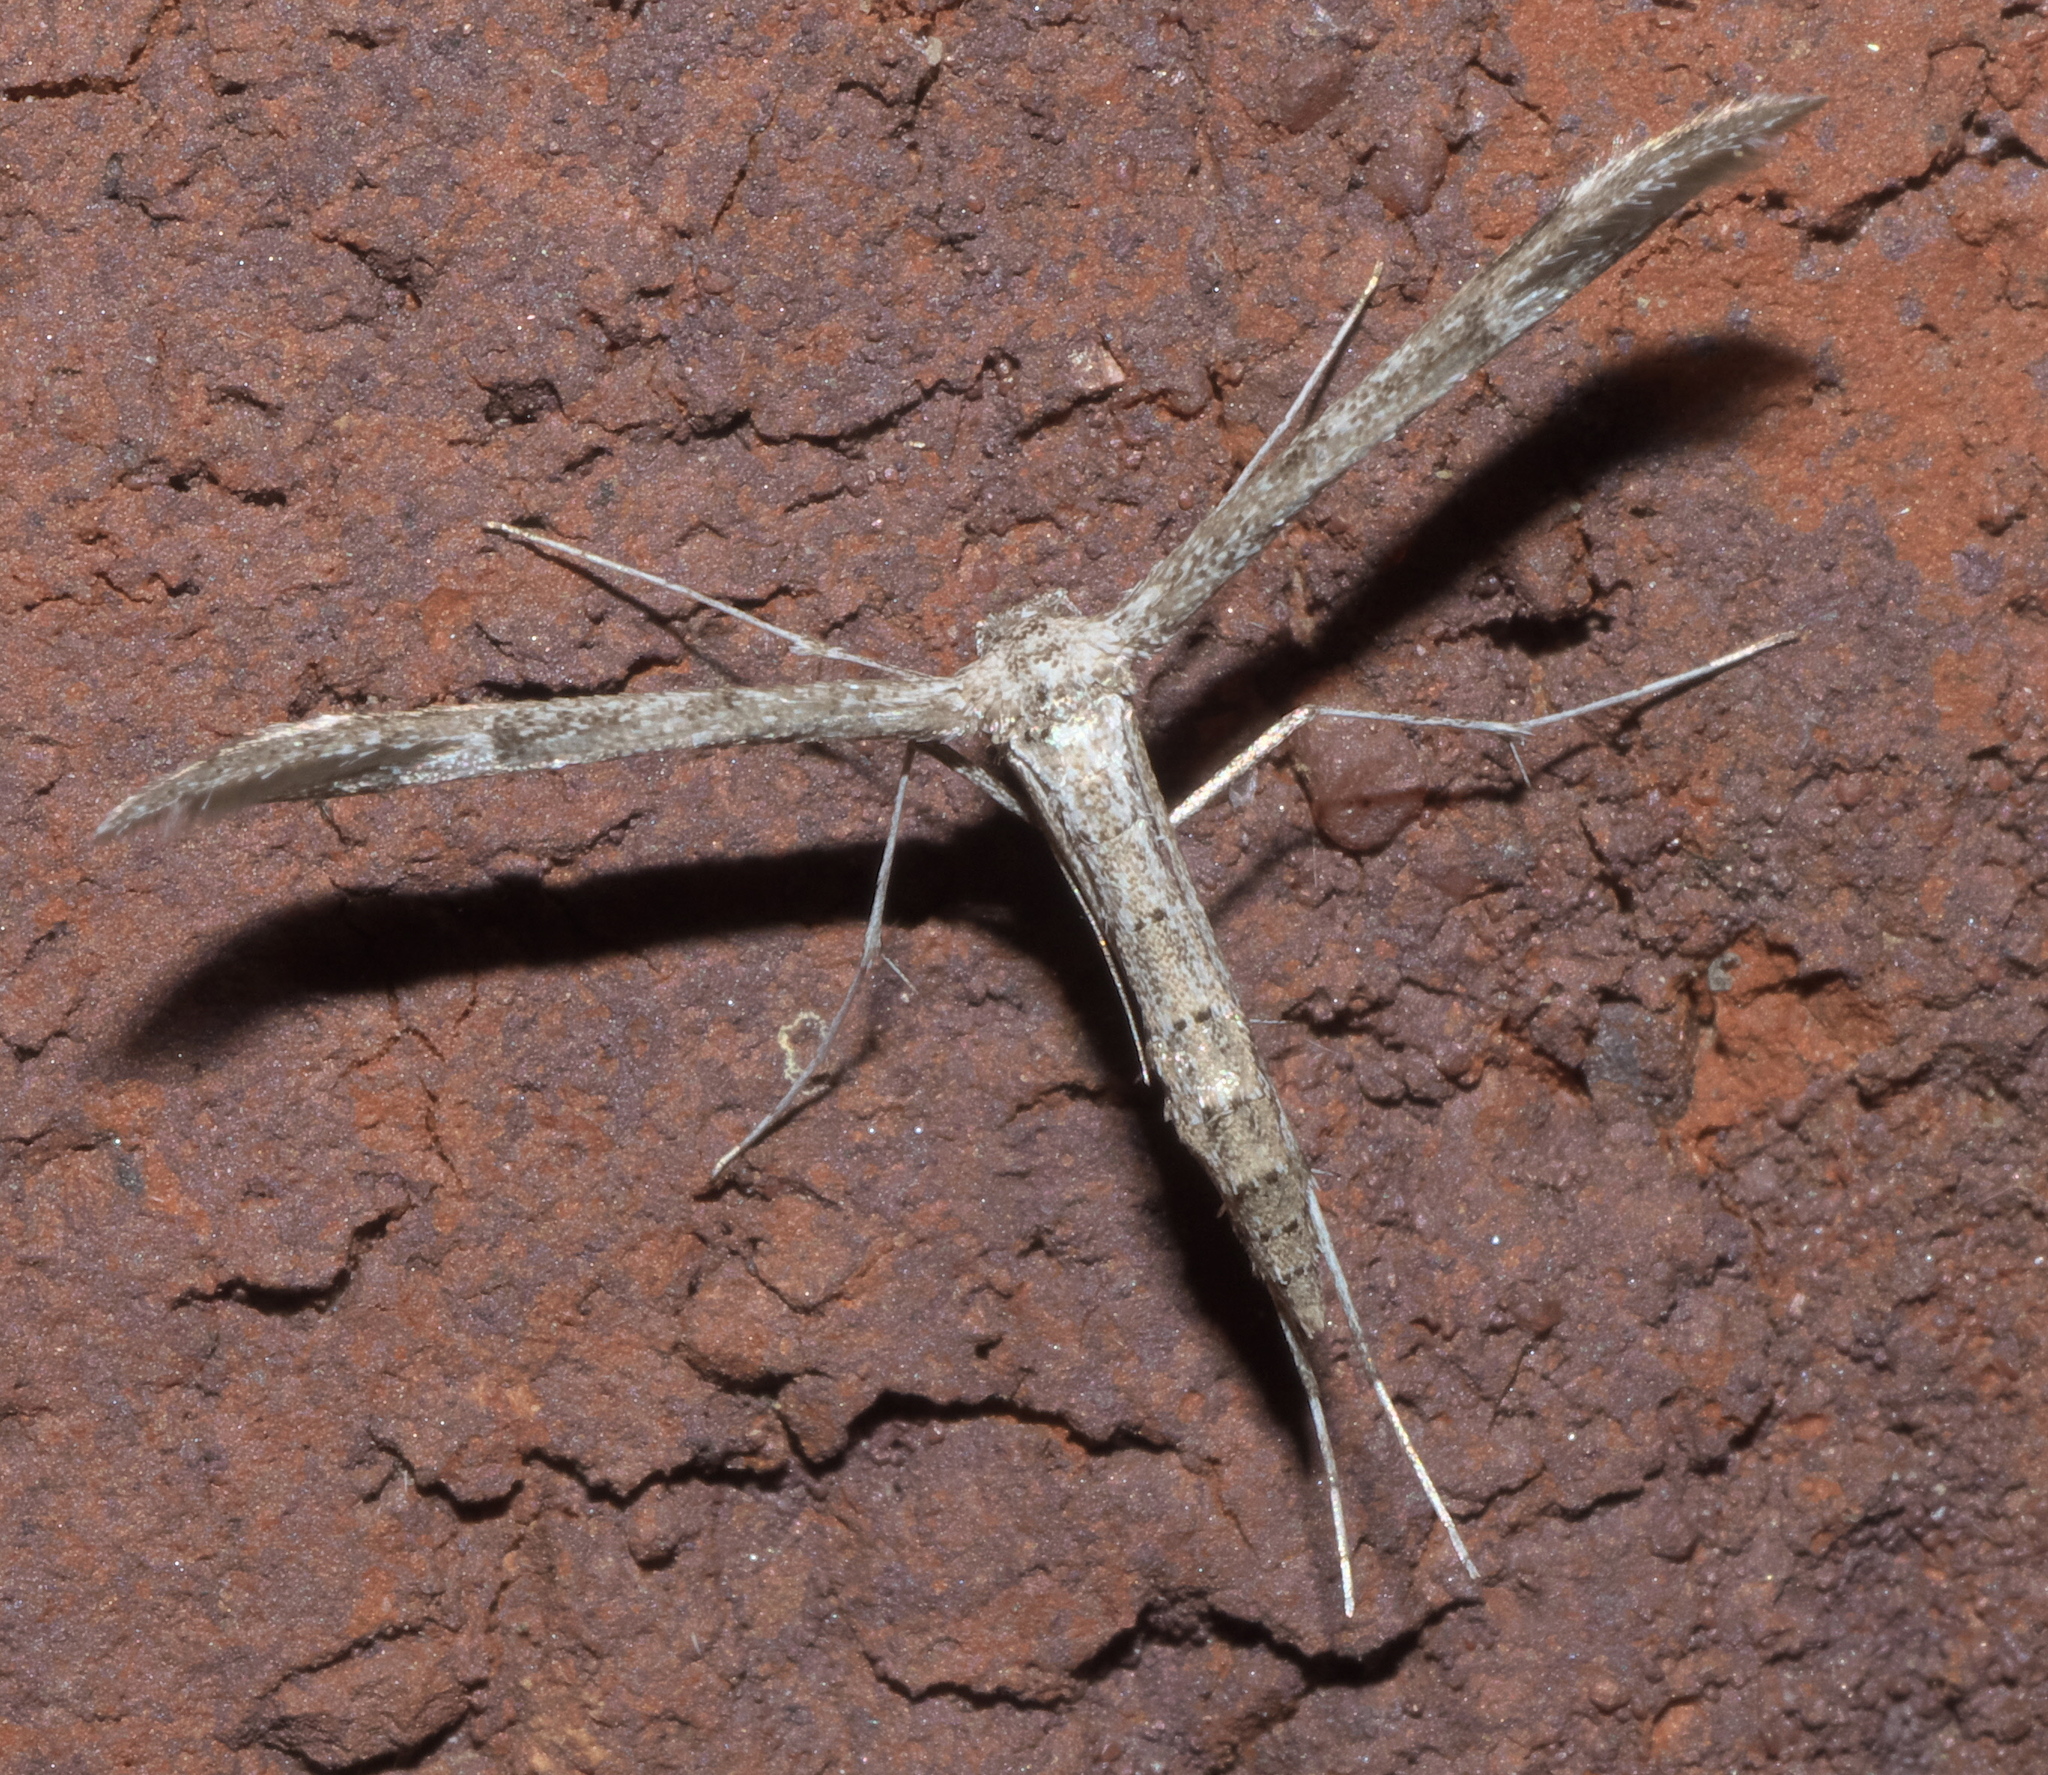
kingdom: Animalia
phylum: Arthropoda
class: Insecta
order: Lepidoptera
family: Pterophoridae
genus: Hellinsia
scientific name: Hellinsia inquinatus
